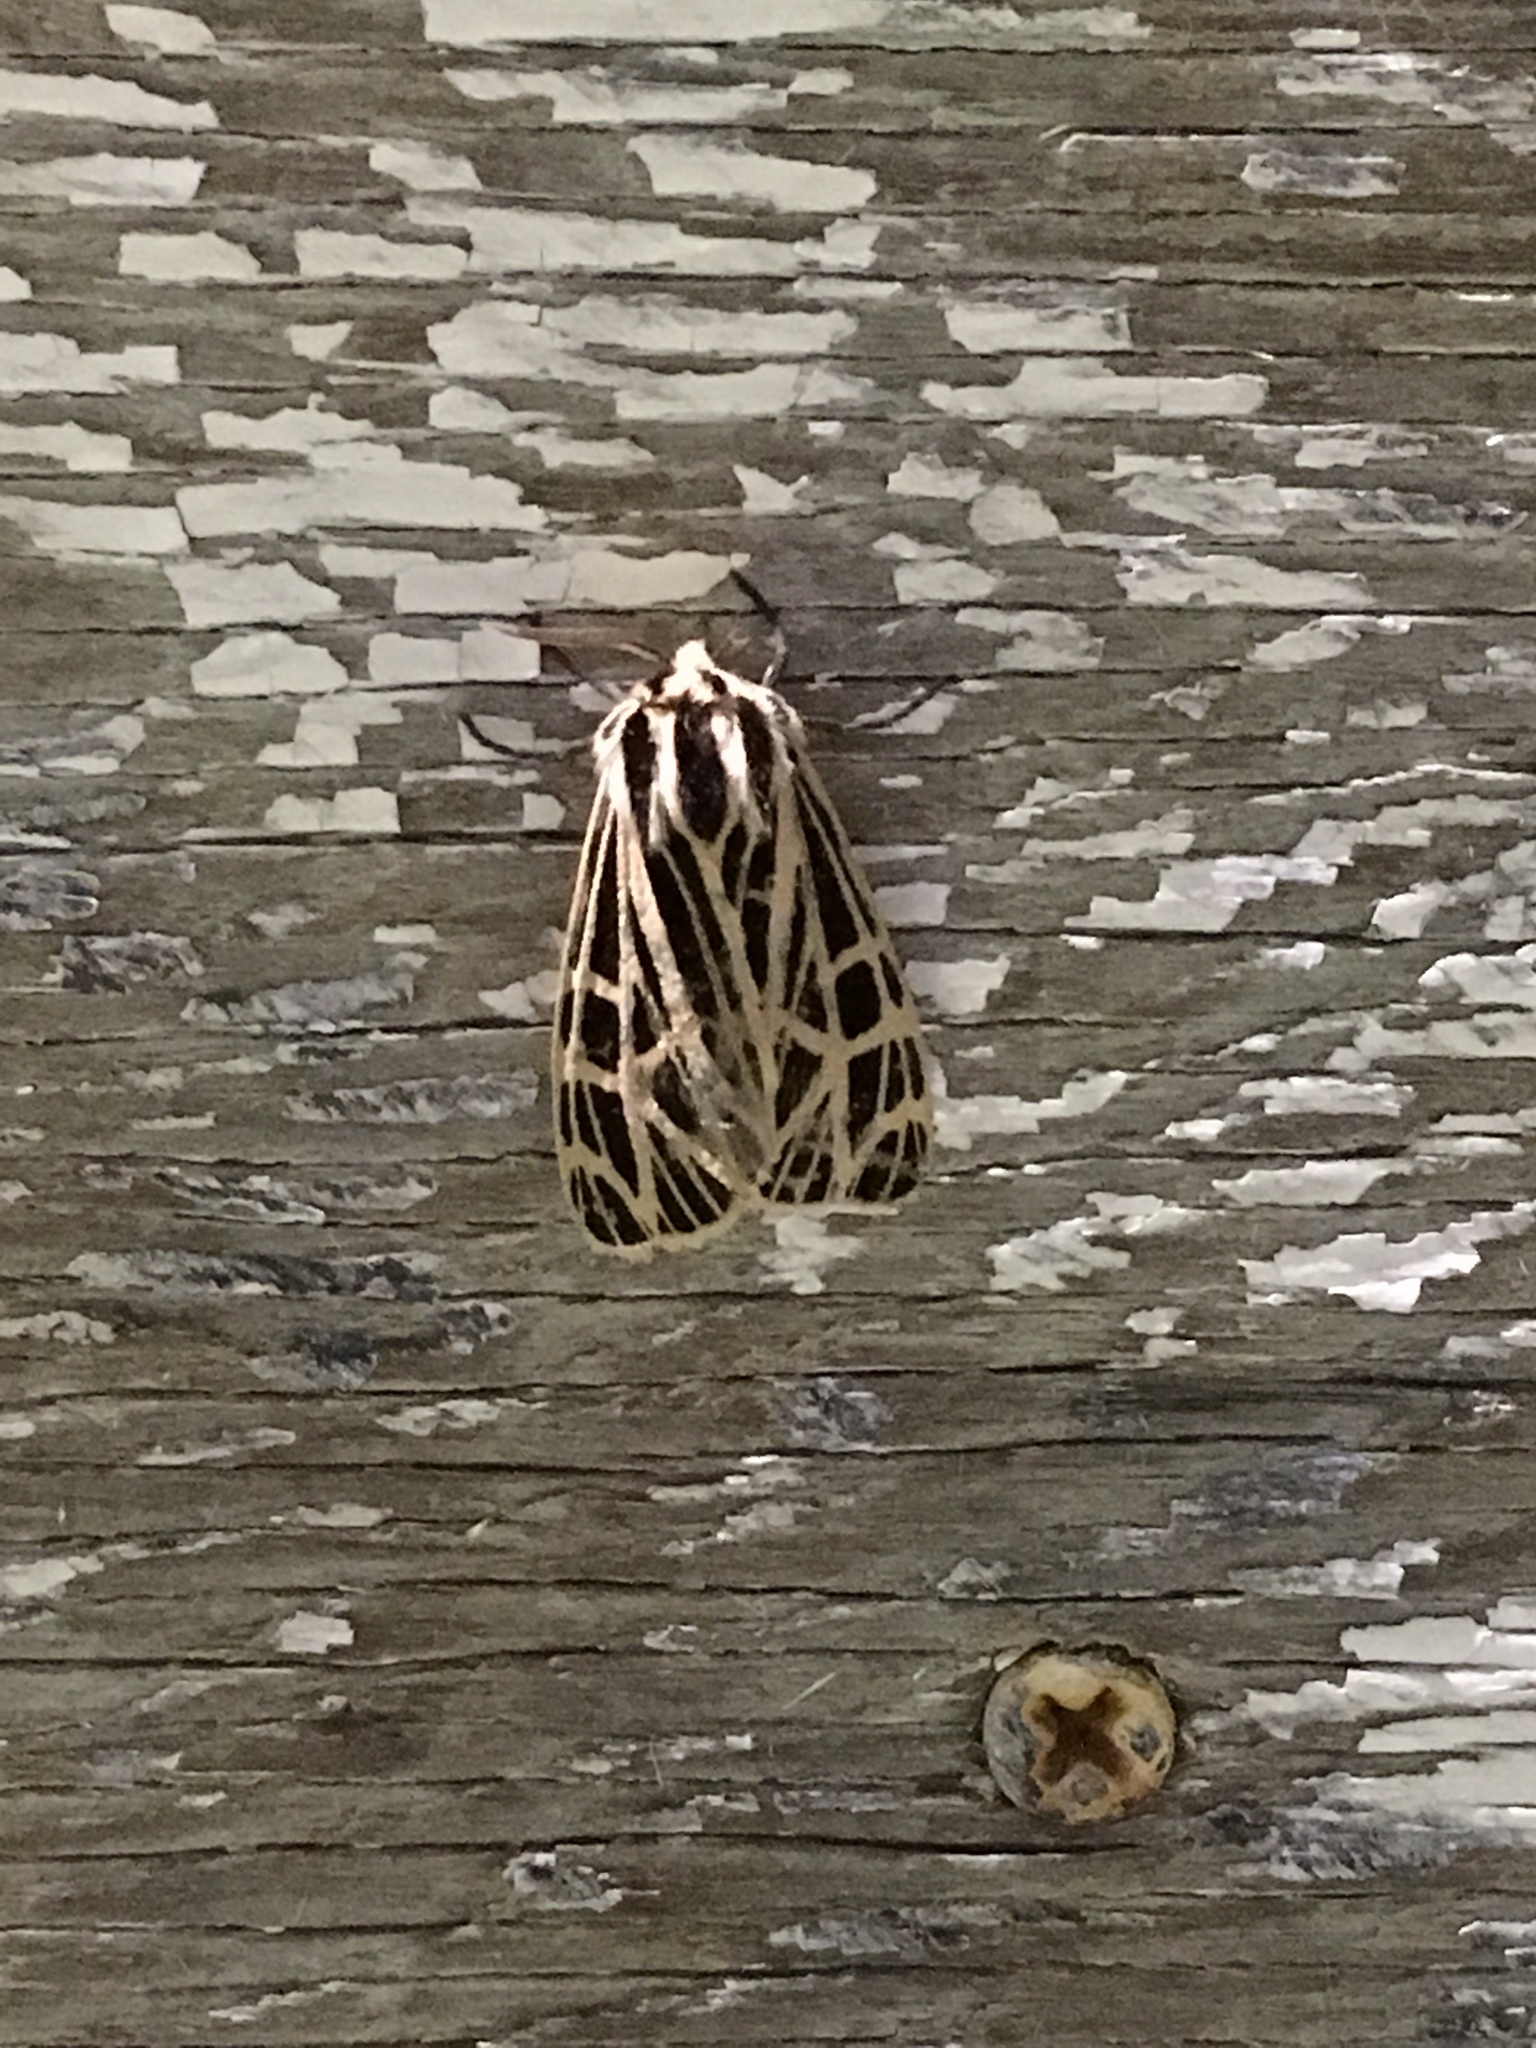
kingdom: Animalia
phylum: Arthropoda
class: Insecta
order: Lepidoptera
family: Erebidae
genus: Grammia
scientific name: Grammia virgo
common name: Virgin tiger moth
